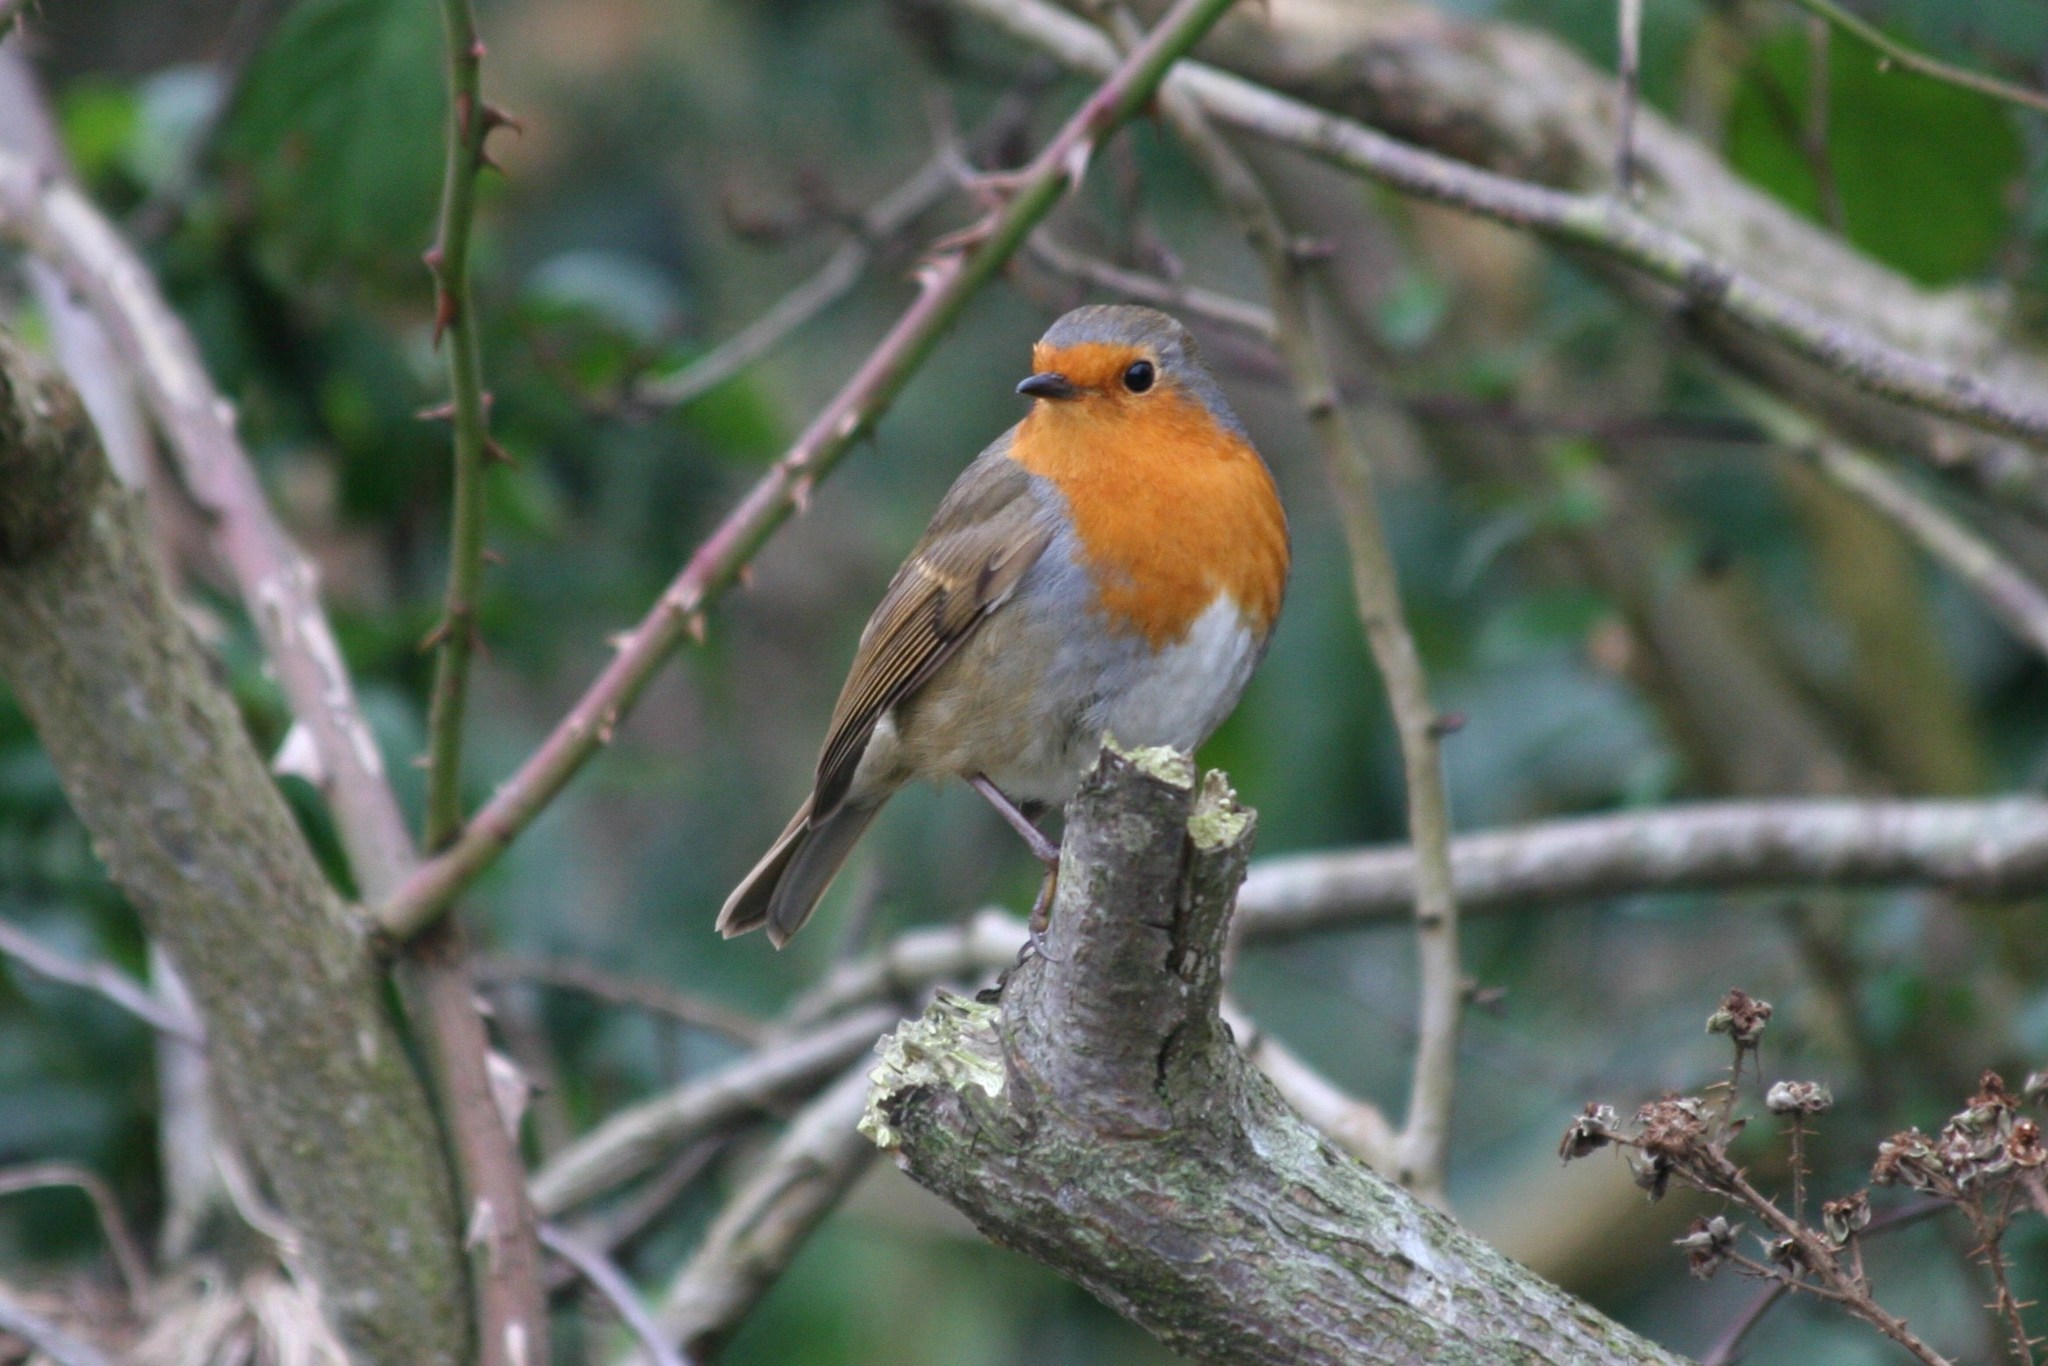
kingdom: Animalia
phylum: Chordata
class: Aves
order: Passeriformes
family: Muscicapidae
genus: Erithacus
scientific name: Erithacus rubecula
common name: European robin
